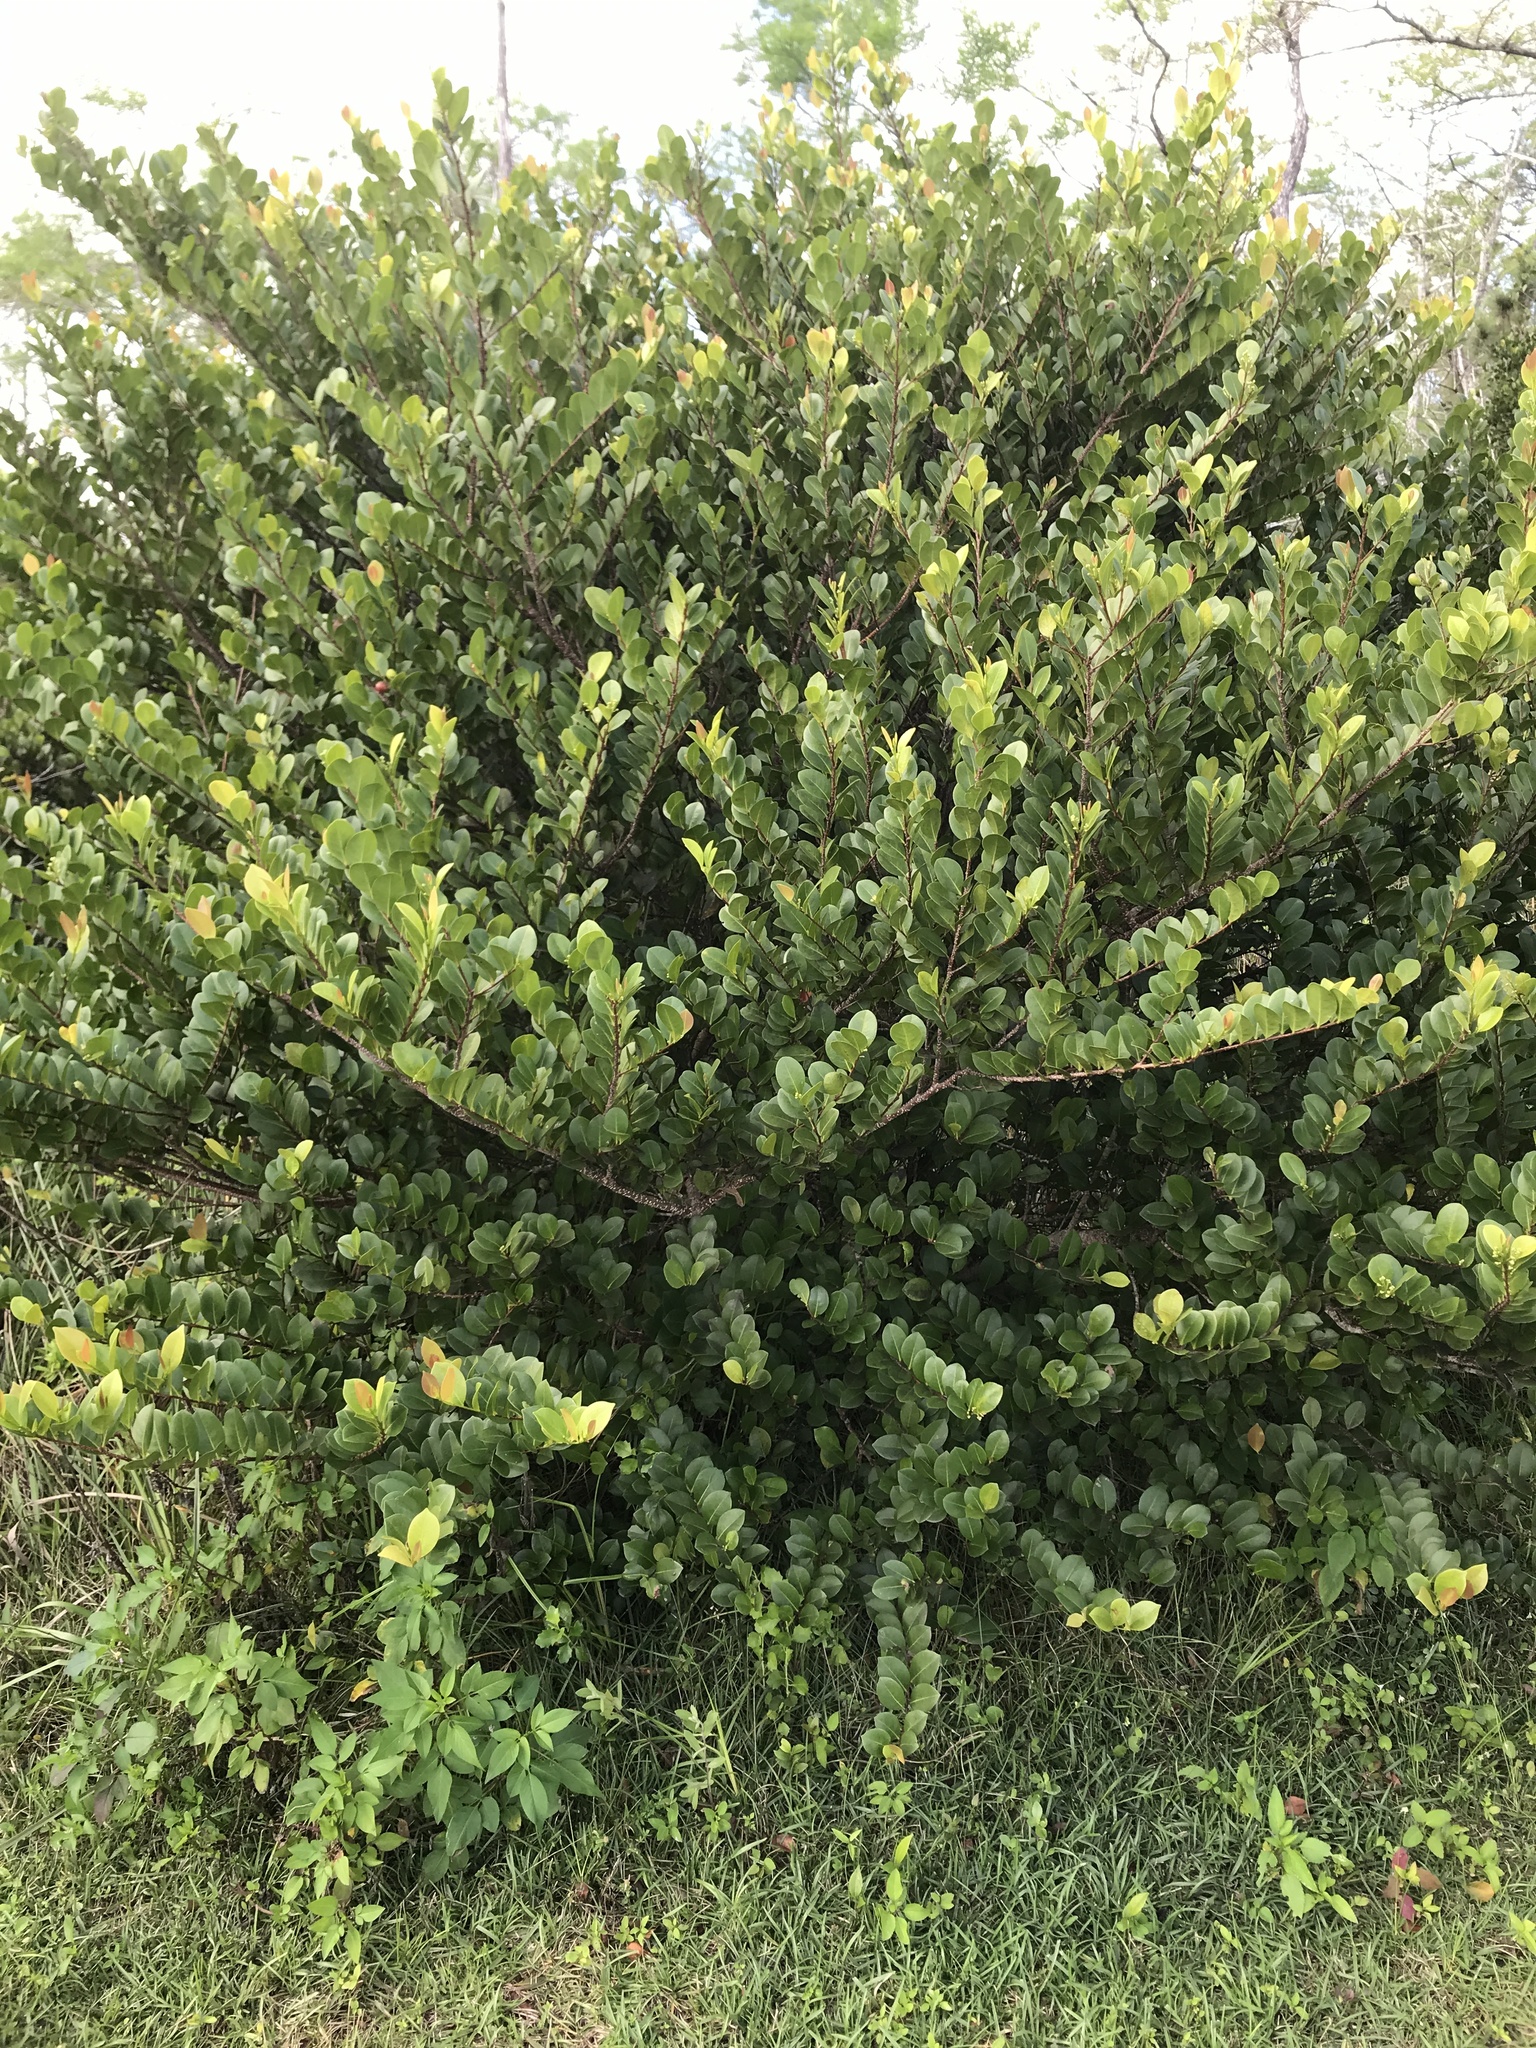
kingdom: Plantae
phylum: Tracheophyta
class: Magnoliopsida
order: Malpighiales
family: Chrysobalanaceae
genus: Chrysobalanus
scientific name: Chrysobalanus icaco
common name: Coco plum
